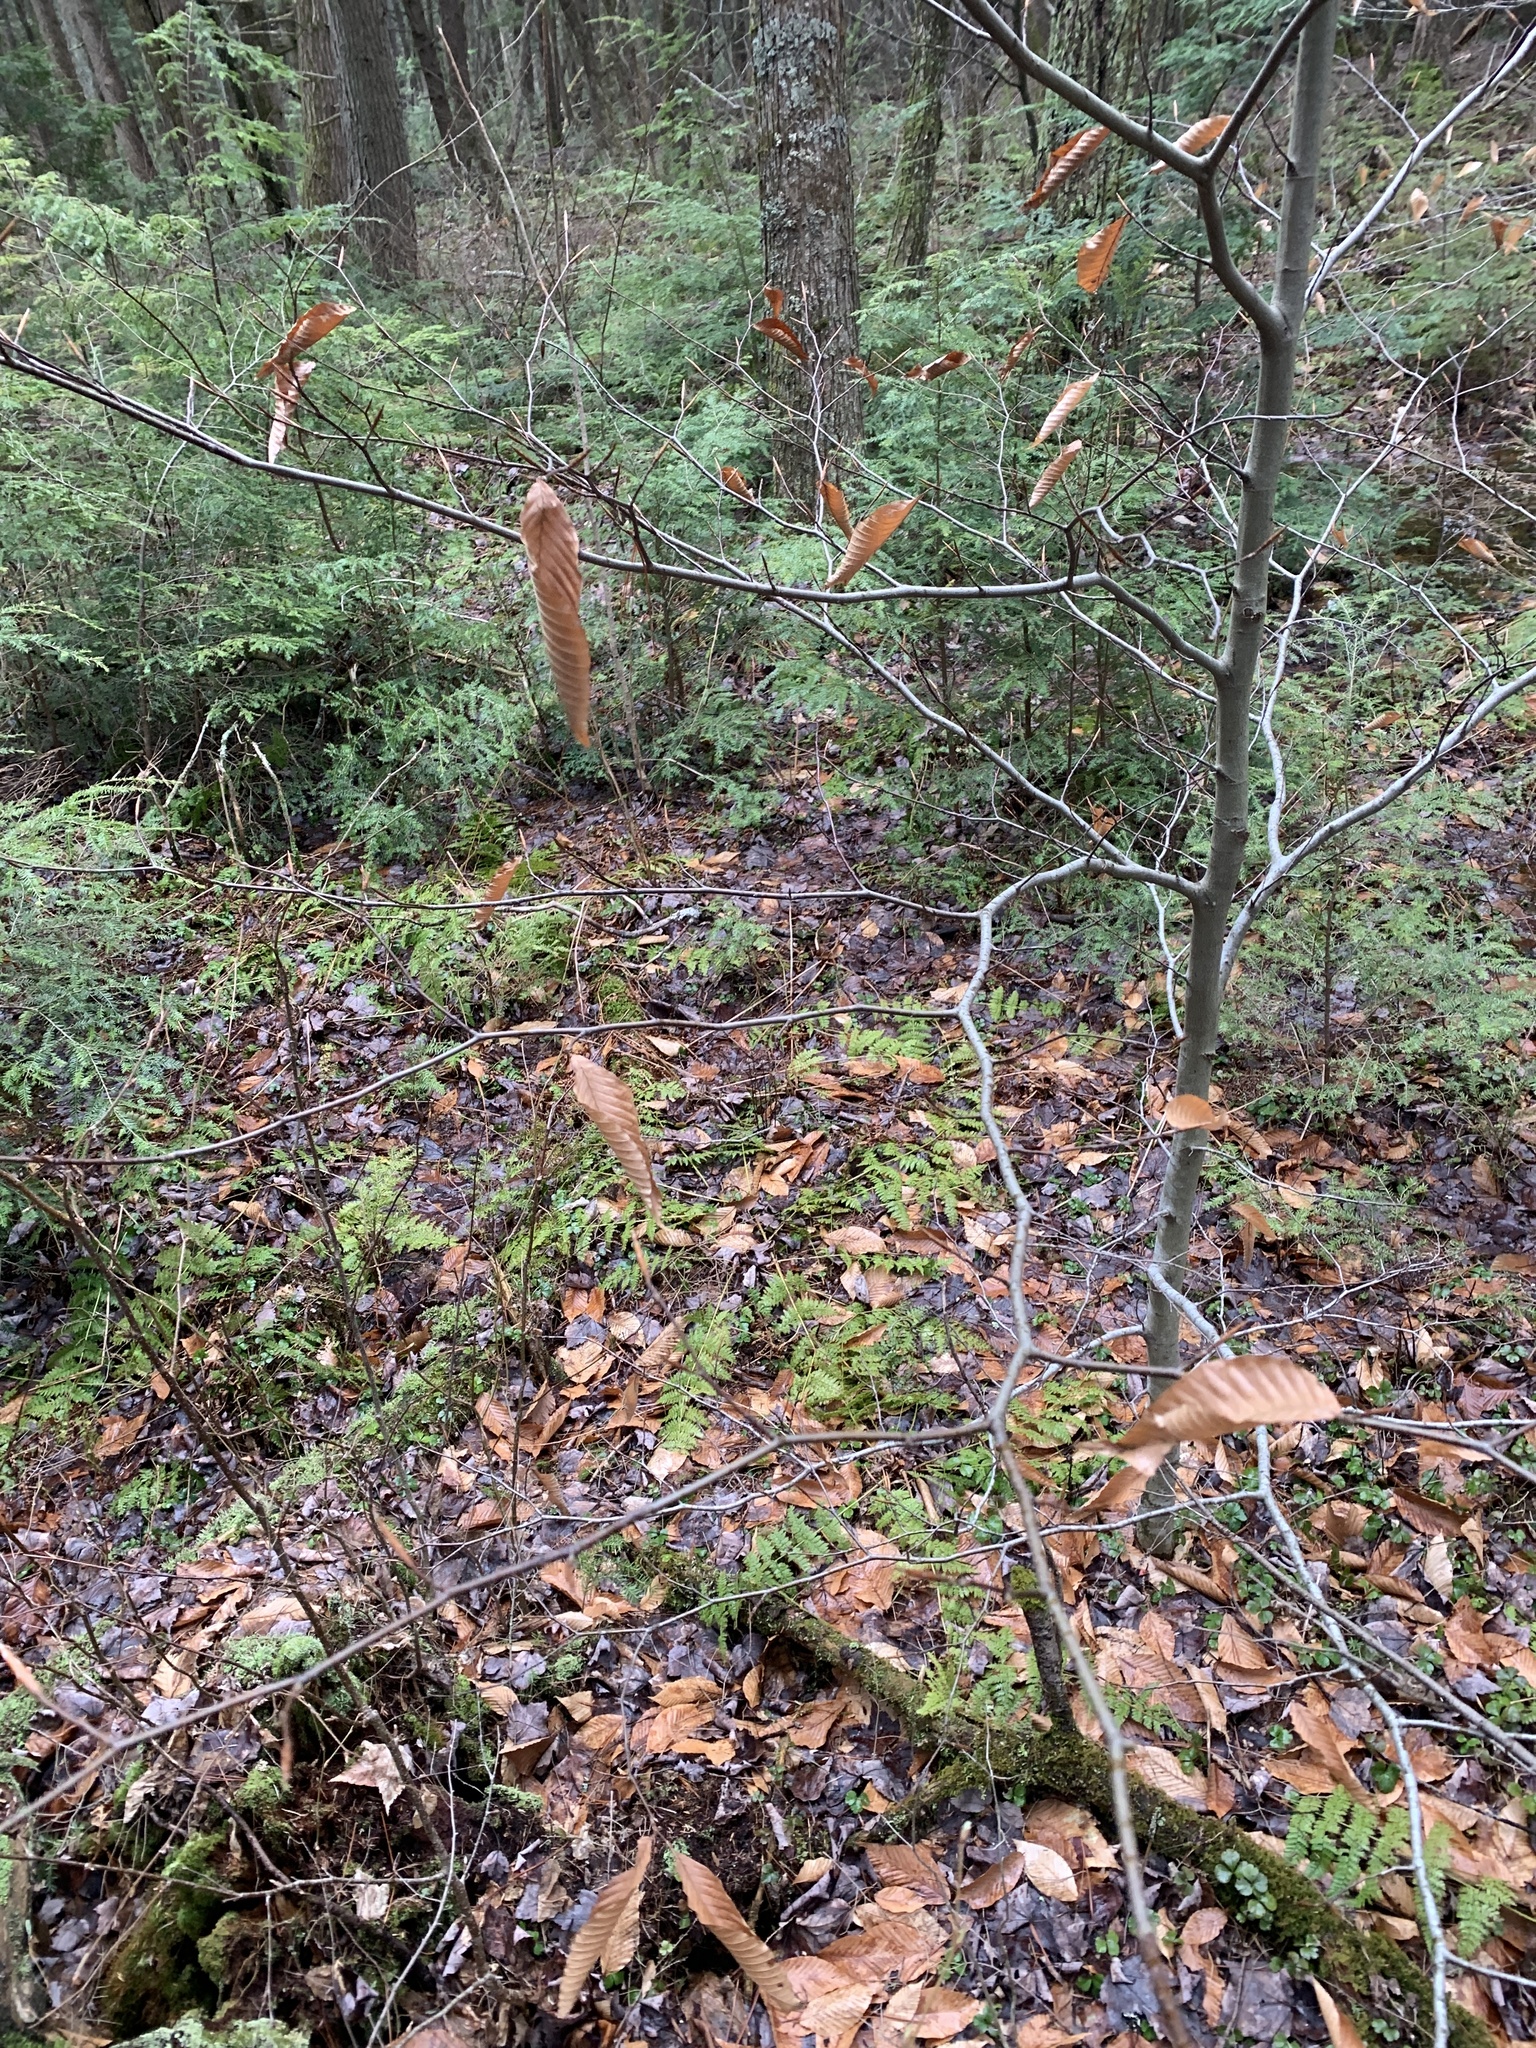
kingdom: Plantae
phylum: Tracheophyta
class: Magnoliopsida
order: Fagales
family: Fagaceae
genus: Fagus
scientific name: Fagus grandifolia
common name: American beech
